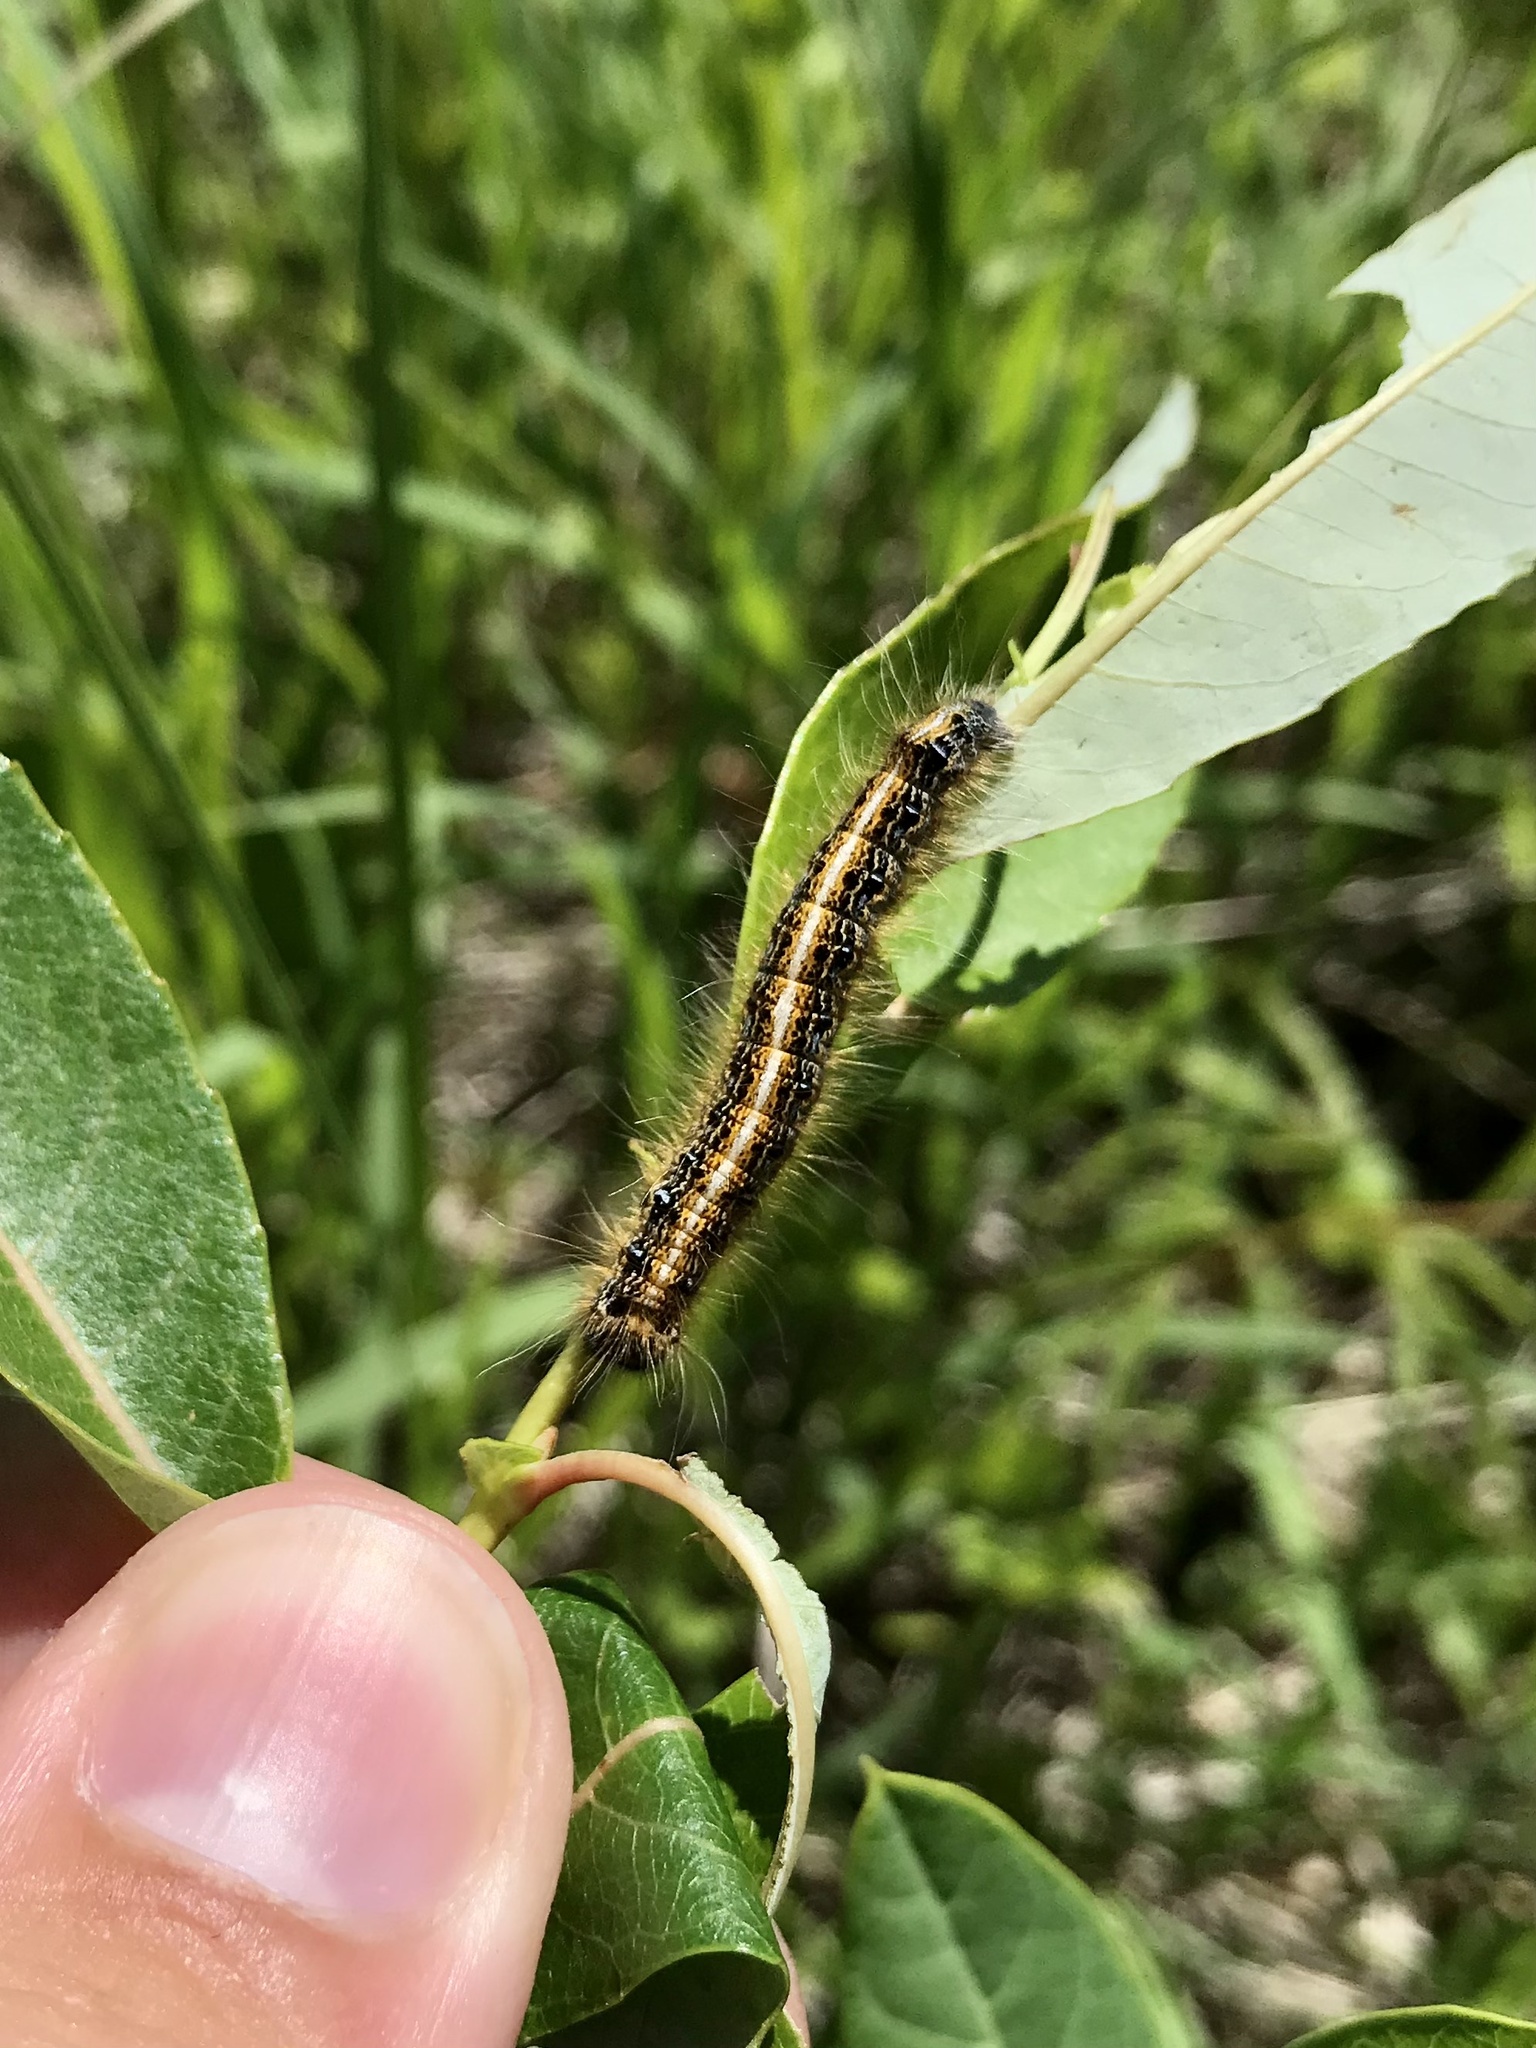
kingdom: Animalia
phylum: Arthropoda
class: Insecta
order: Lepidoptera
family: Lasiocampidae
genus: Malacosoma
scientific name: Malacosoma americana
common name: Eastern tent caterpillar moth
